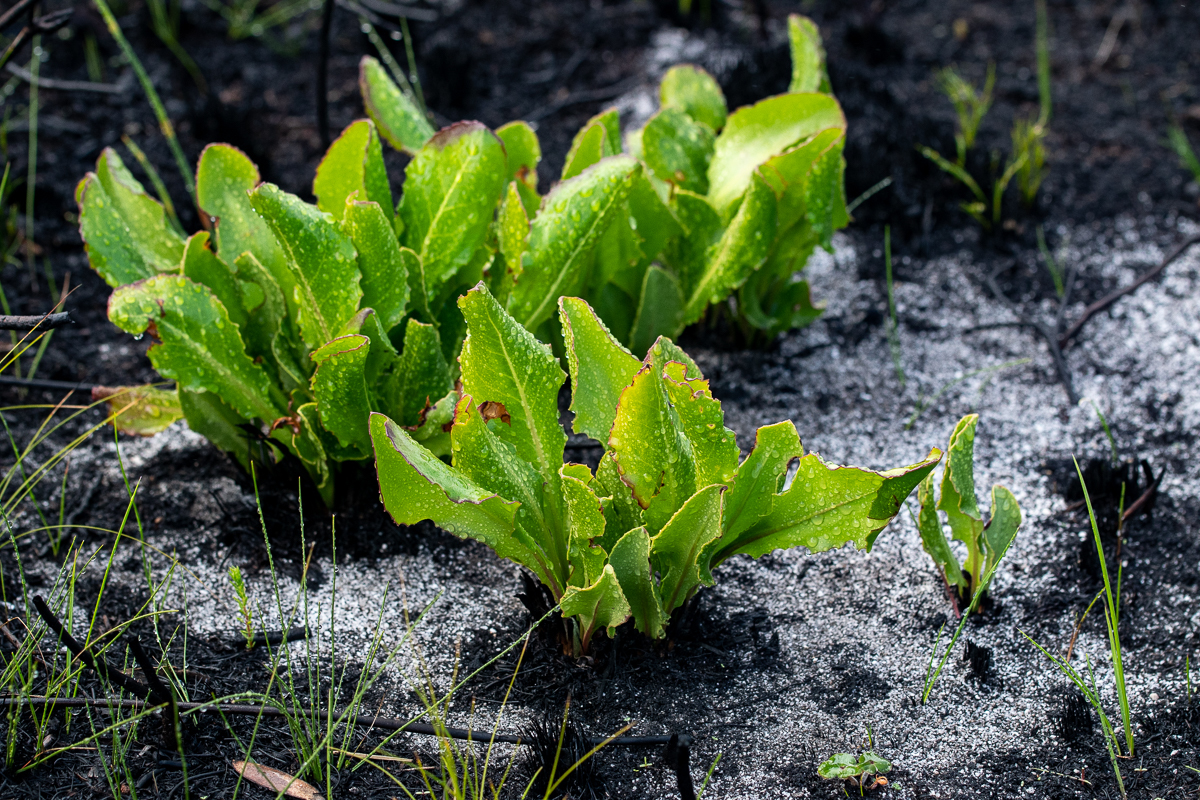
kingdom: Plantae
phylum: Tracheophyta
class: Magnoliopsida
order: Asterales
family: Asteraceae
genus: Gerbera
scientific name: Gerbera crocea
